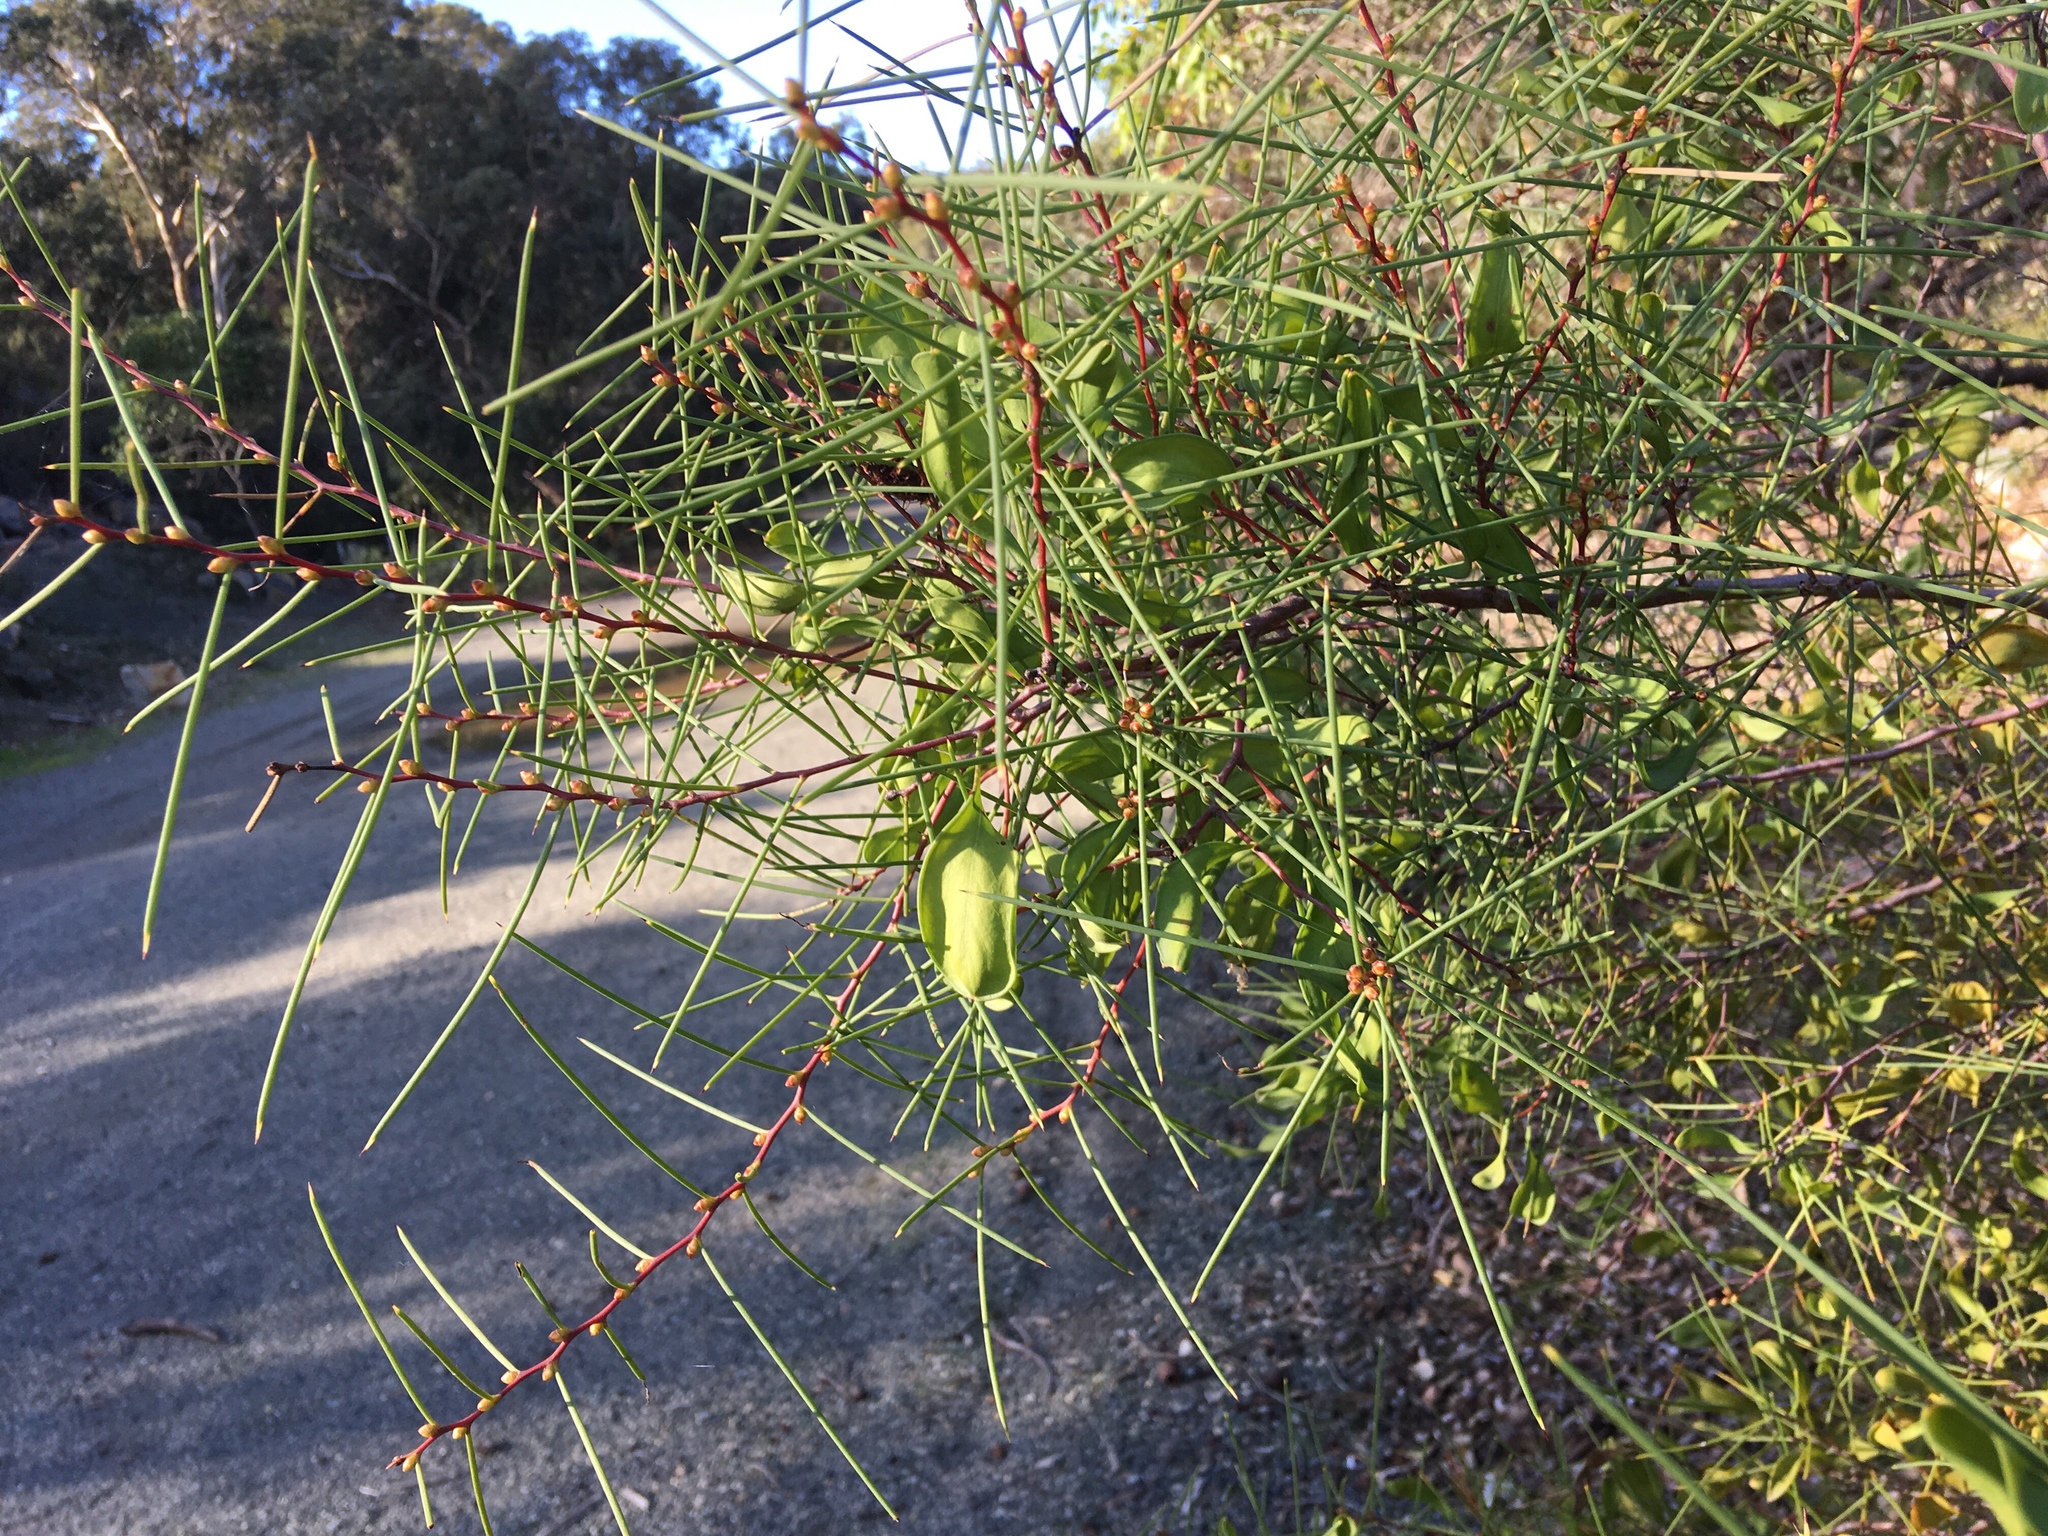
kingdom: Plantae
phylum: Tracheophyta
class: Magnoliopsida
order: Proteales
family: Proteaceae
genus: Hakea
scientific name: Hakea trifurcata
